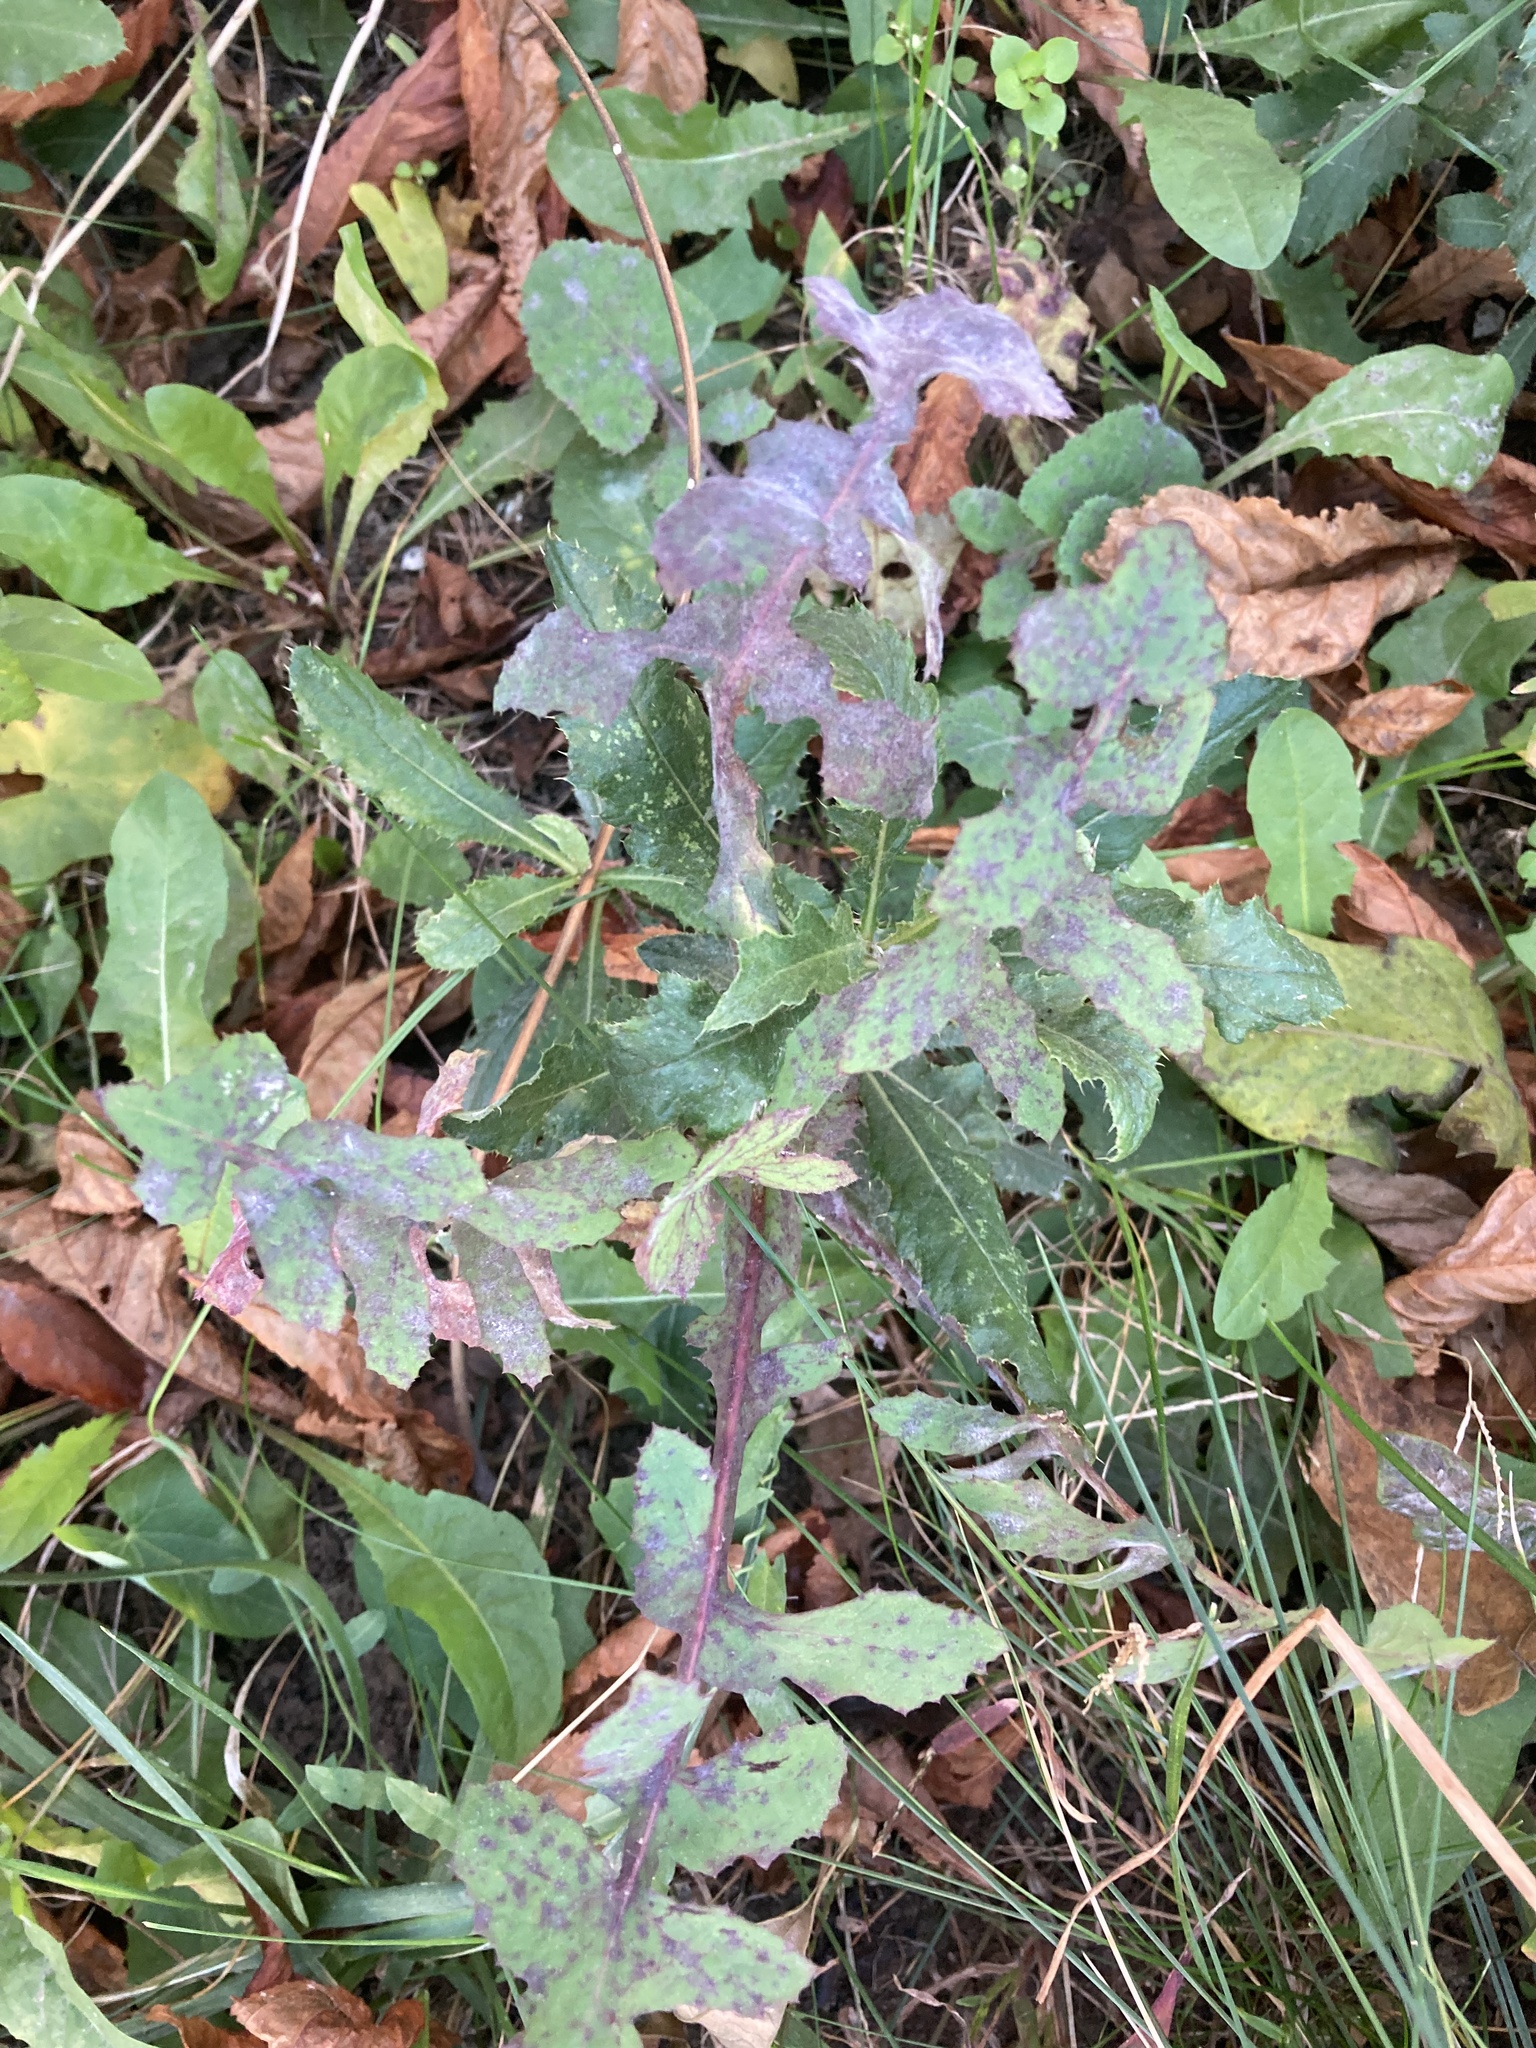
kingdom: Plantae
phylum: Tracheophyta
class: Magnoliopsida
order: Asterales
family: Asteraceae
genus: Sonchus
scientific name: Sonchus oleraceus
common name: Common sowthistle
